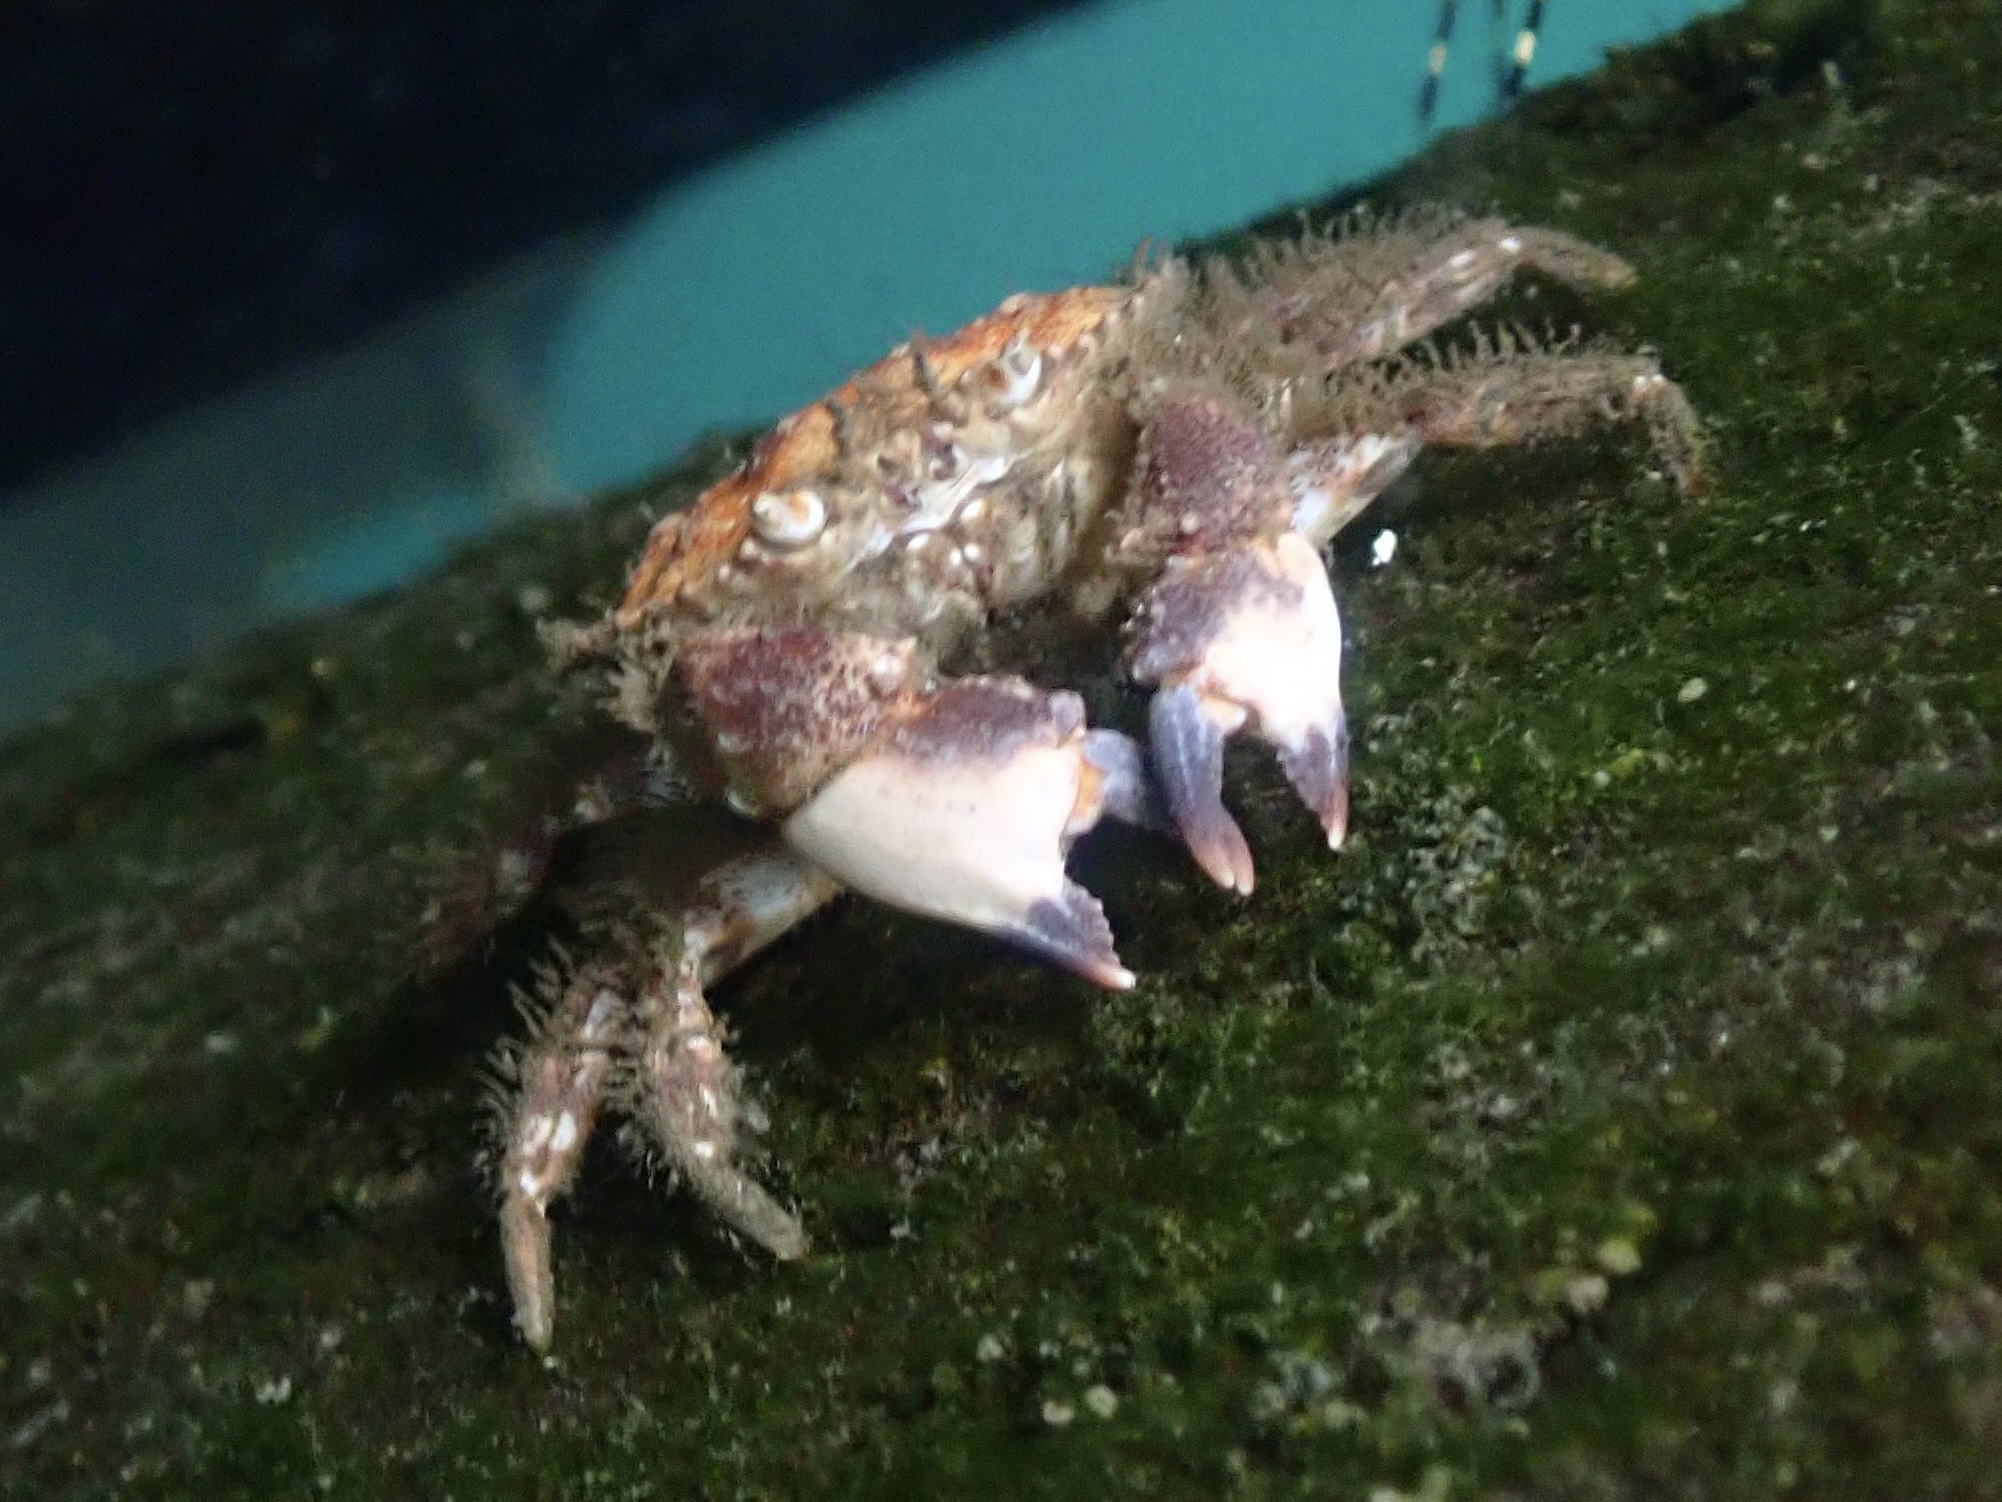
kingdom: Animalia
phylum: Arthropoda
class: Malacostraca
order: Decapoda
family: Cancridae
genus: Glebocarcinus
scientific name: Glebocarcinus oregonensis
